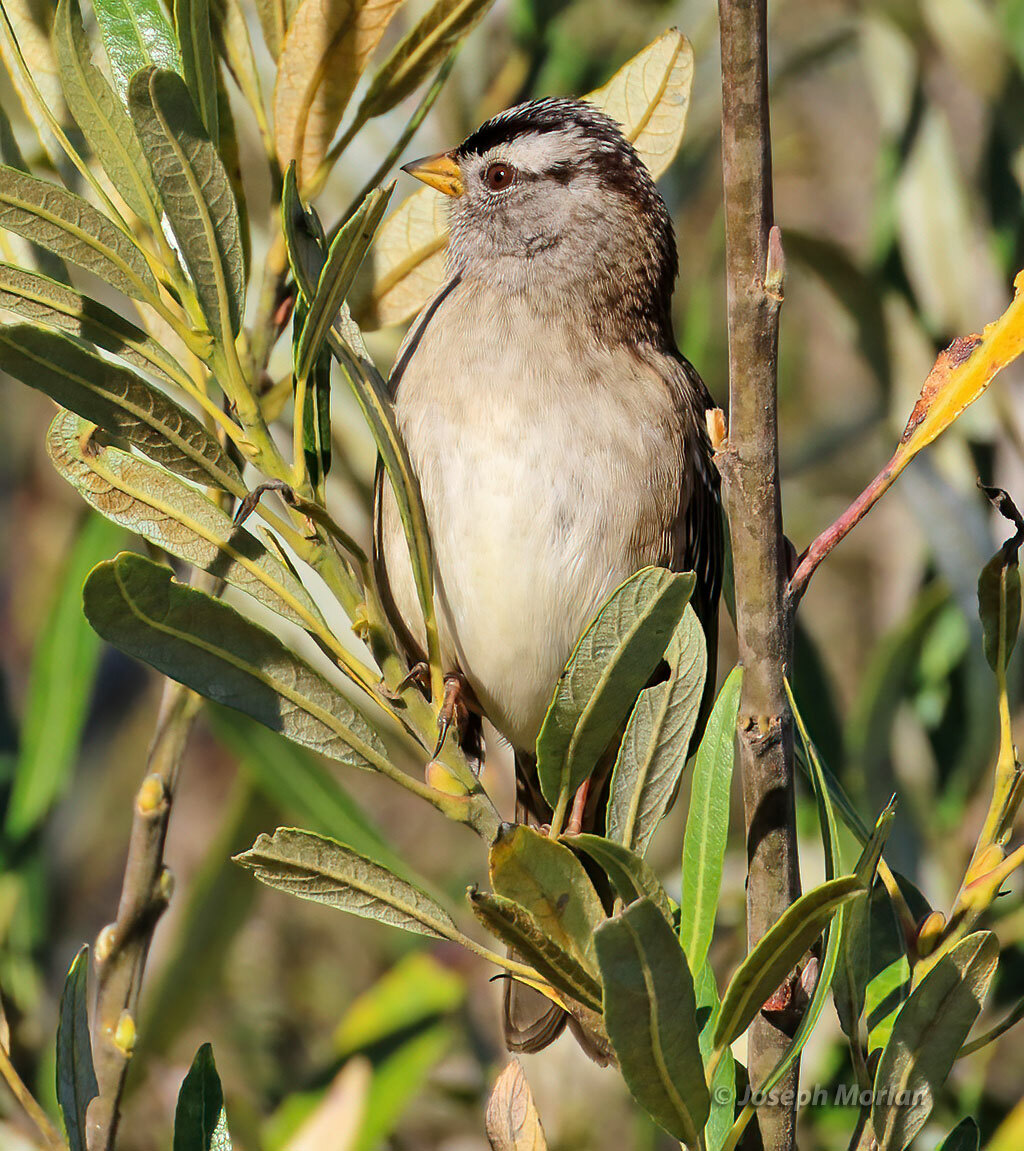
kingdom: Animalia
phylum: Chordata
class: Aves
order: Passeriformes
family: Passerellidae
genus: Zonotrichia
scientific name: Zonotrichia leucophrys
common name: White-crowned sparrow
